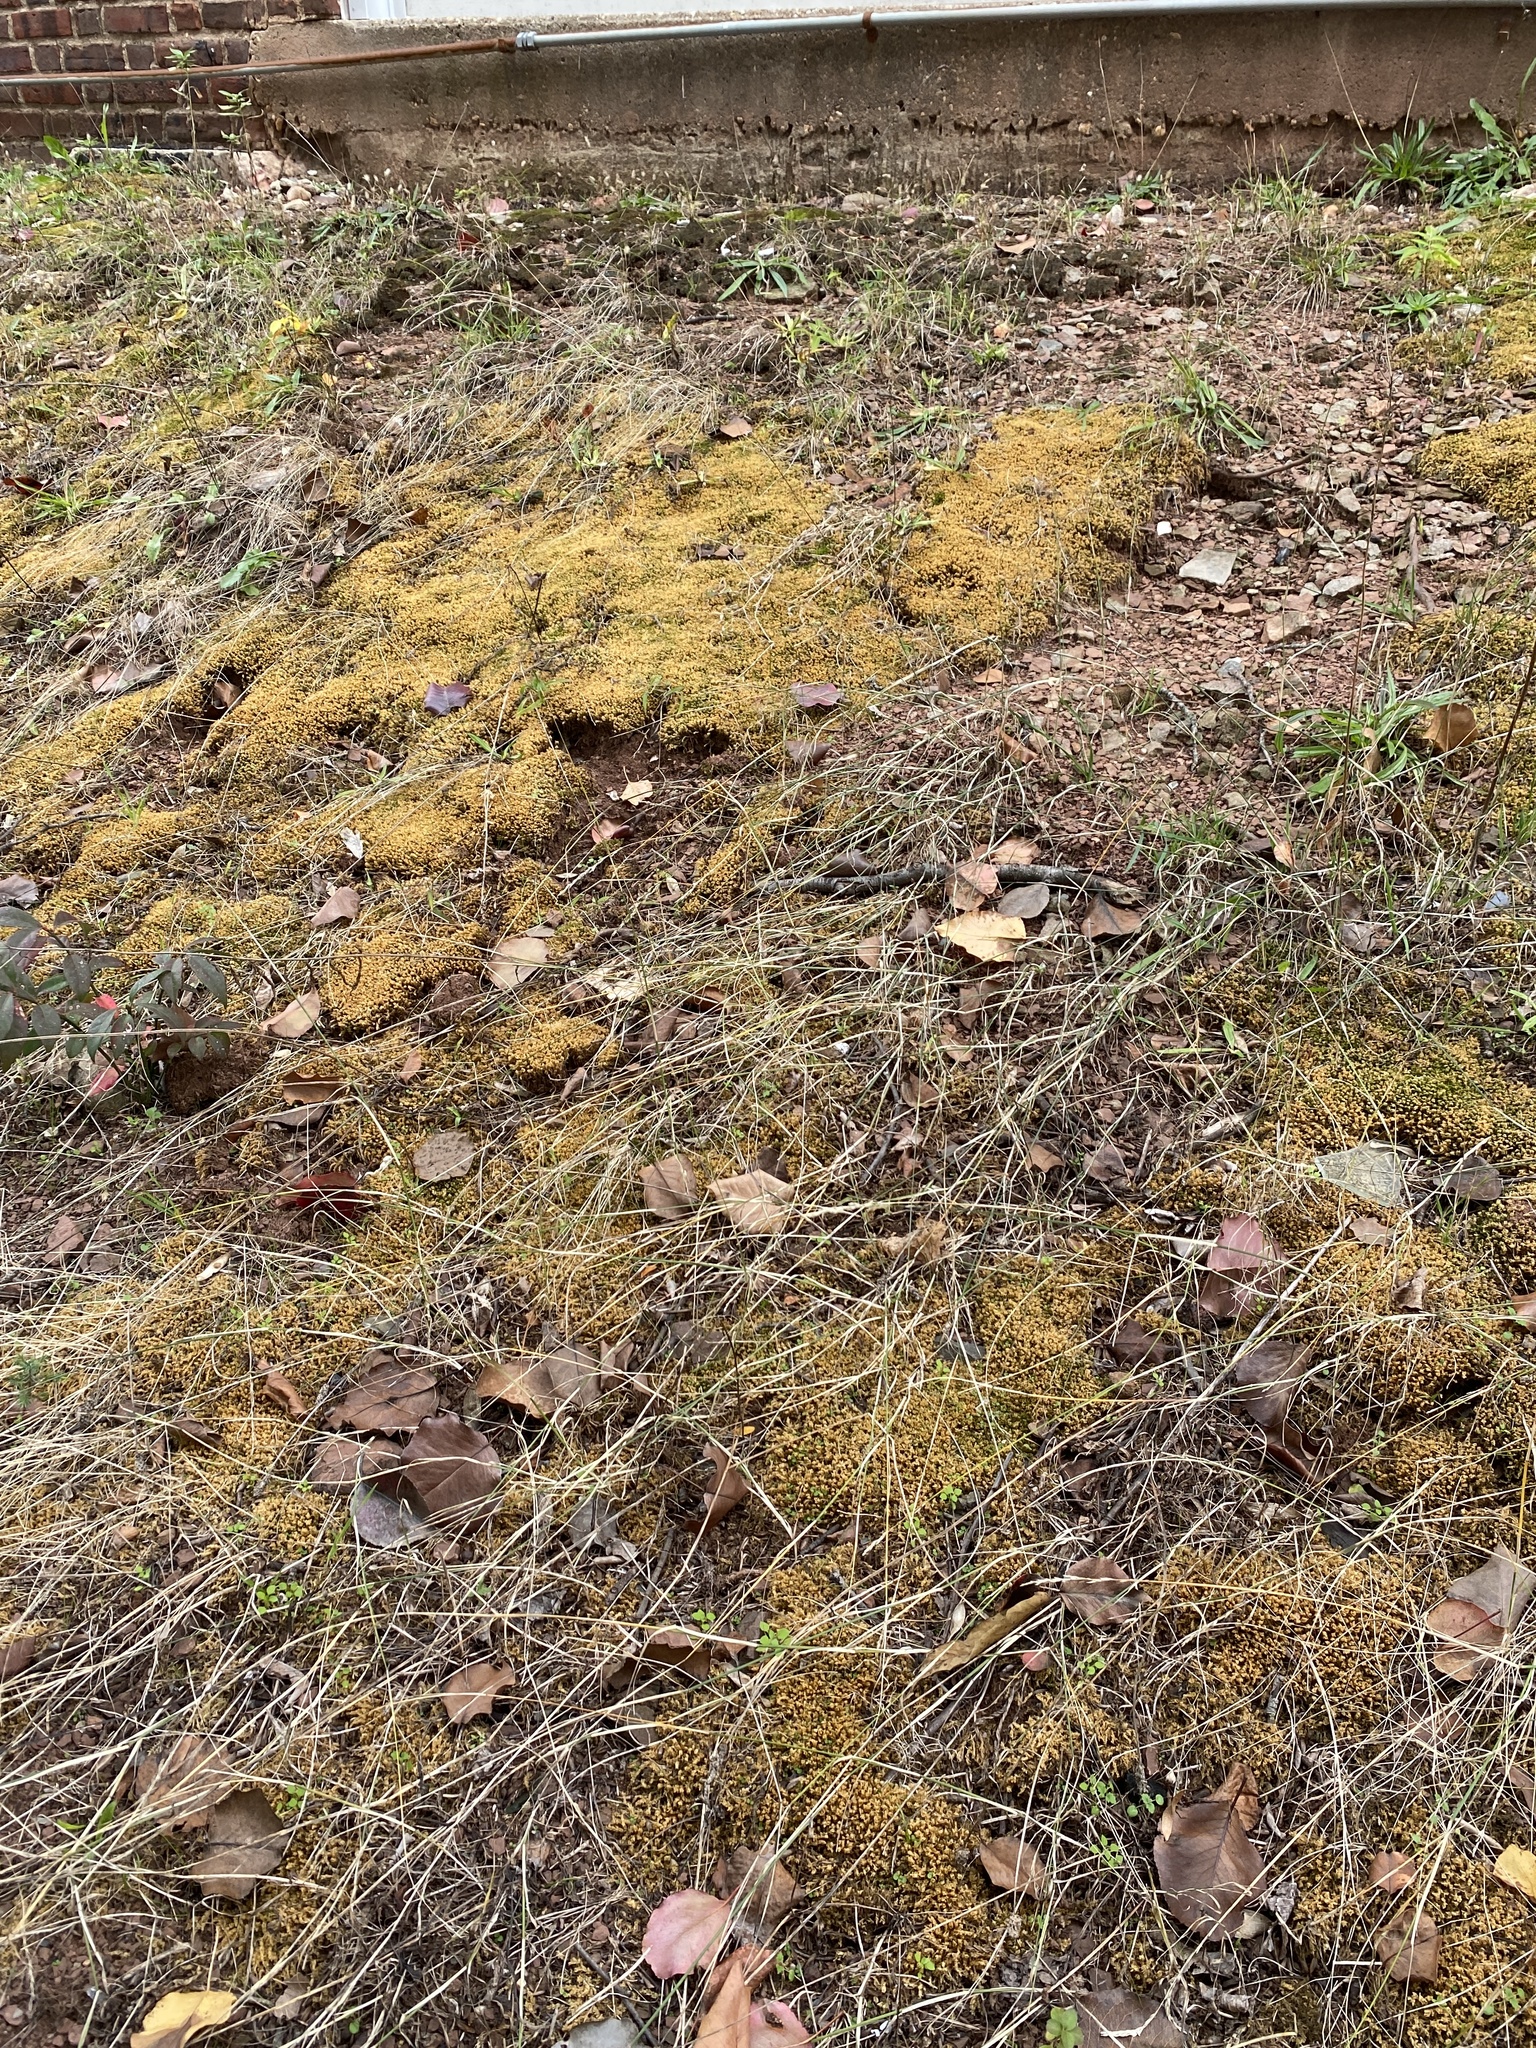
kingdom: Plantae
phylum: Bryophyta
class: Bryopsida
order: Bryales
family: Mniaceae
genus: Plagiomnium
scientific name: Plagiomnium cuspidatum
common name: Woodsy leafy moss
